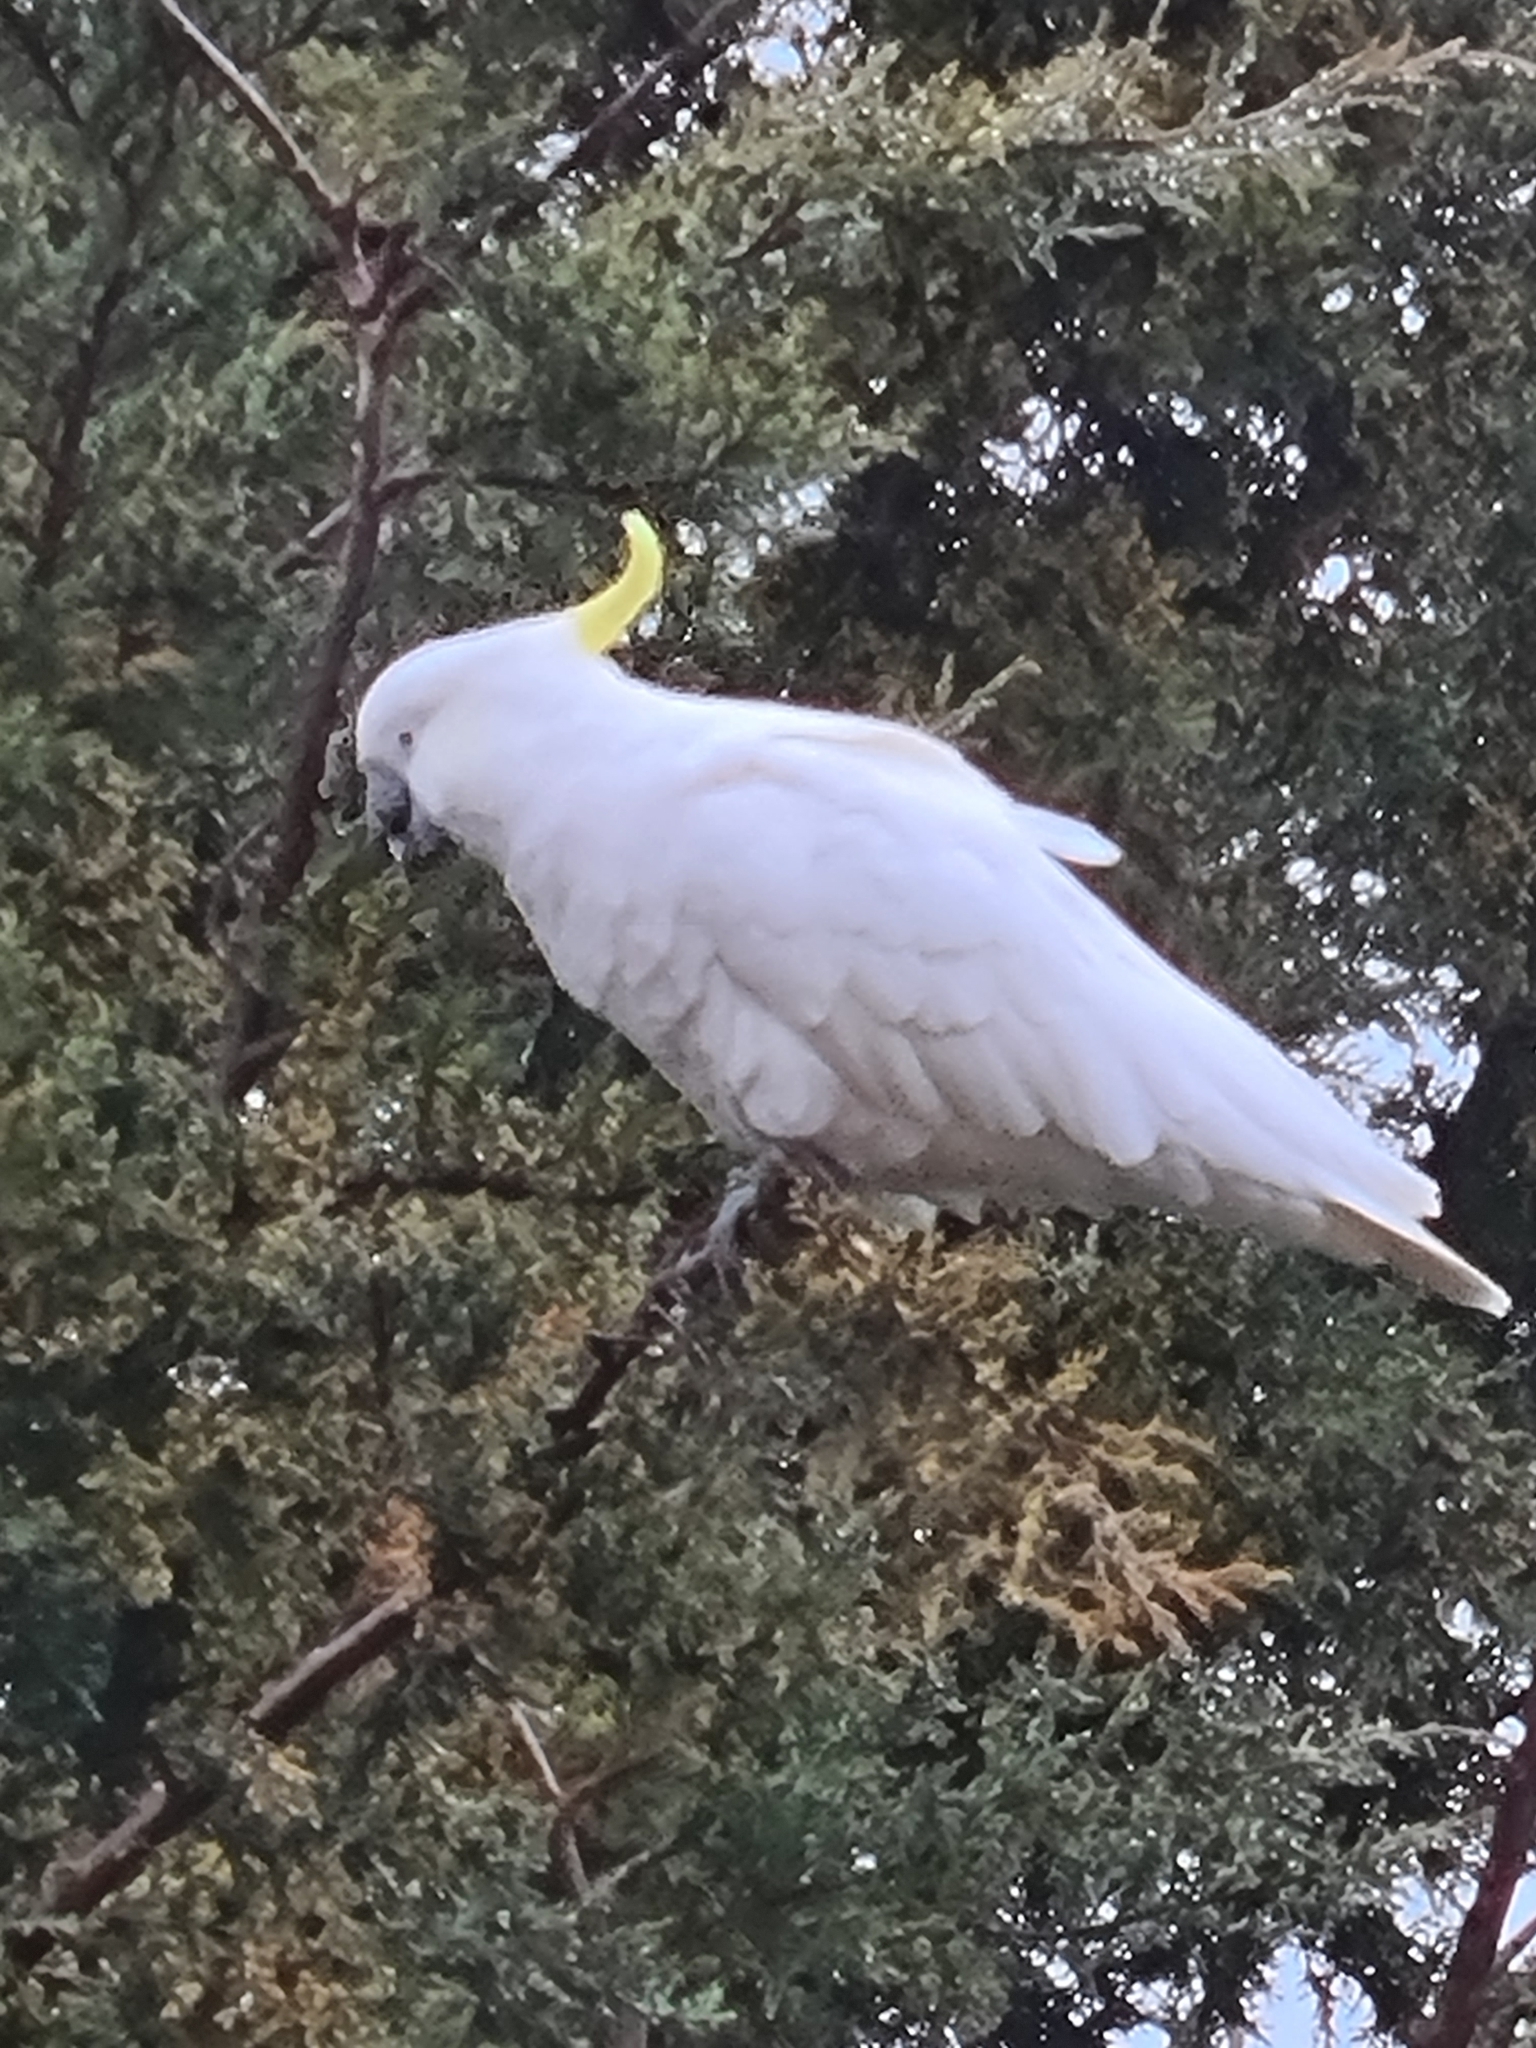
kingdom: Animalia
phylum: Chordata
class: Aves
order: Psittaciformes
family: Psittacidae
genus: Cacatua
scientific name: Cacatua galerita
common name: Sulphur-crested cockatoo
